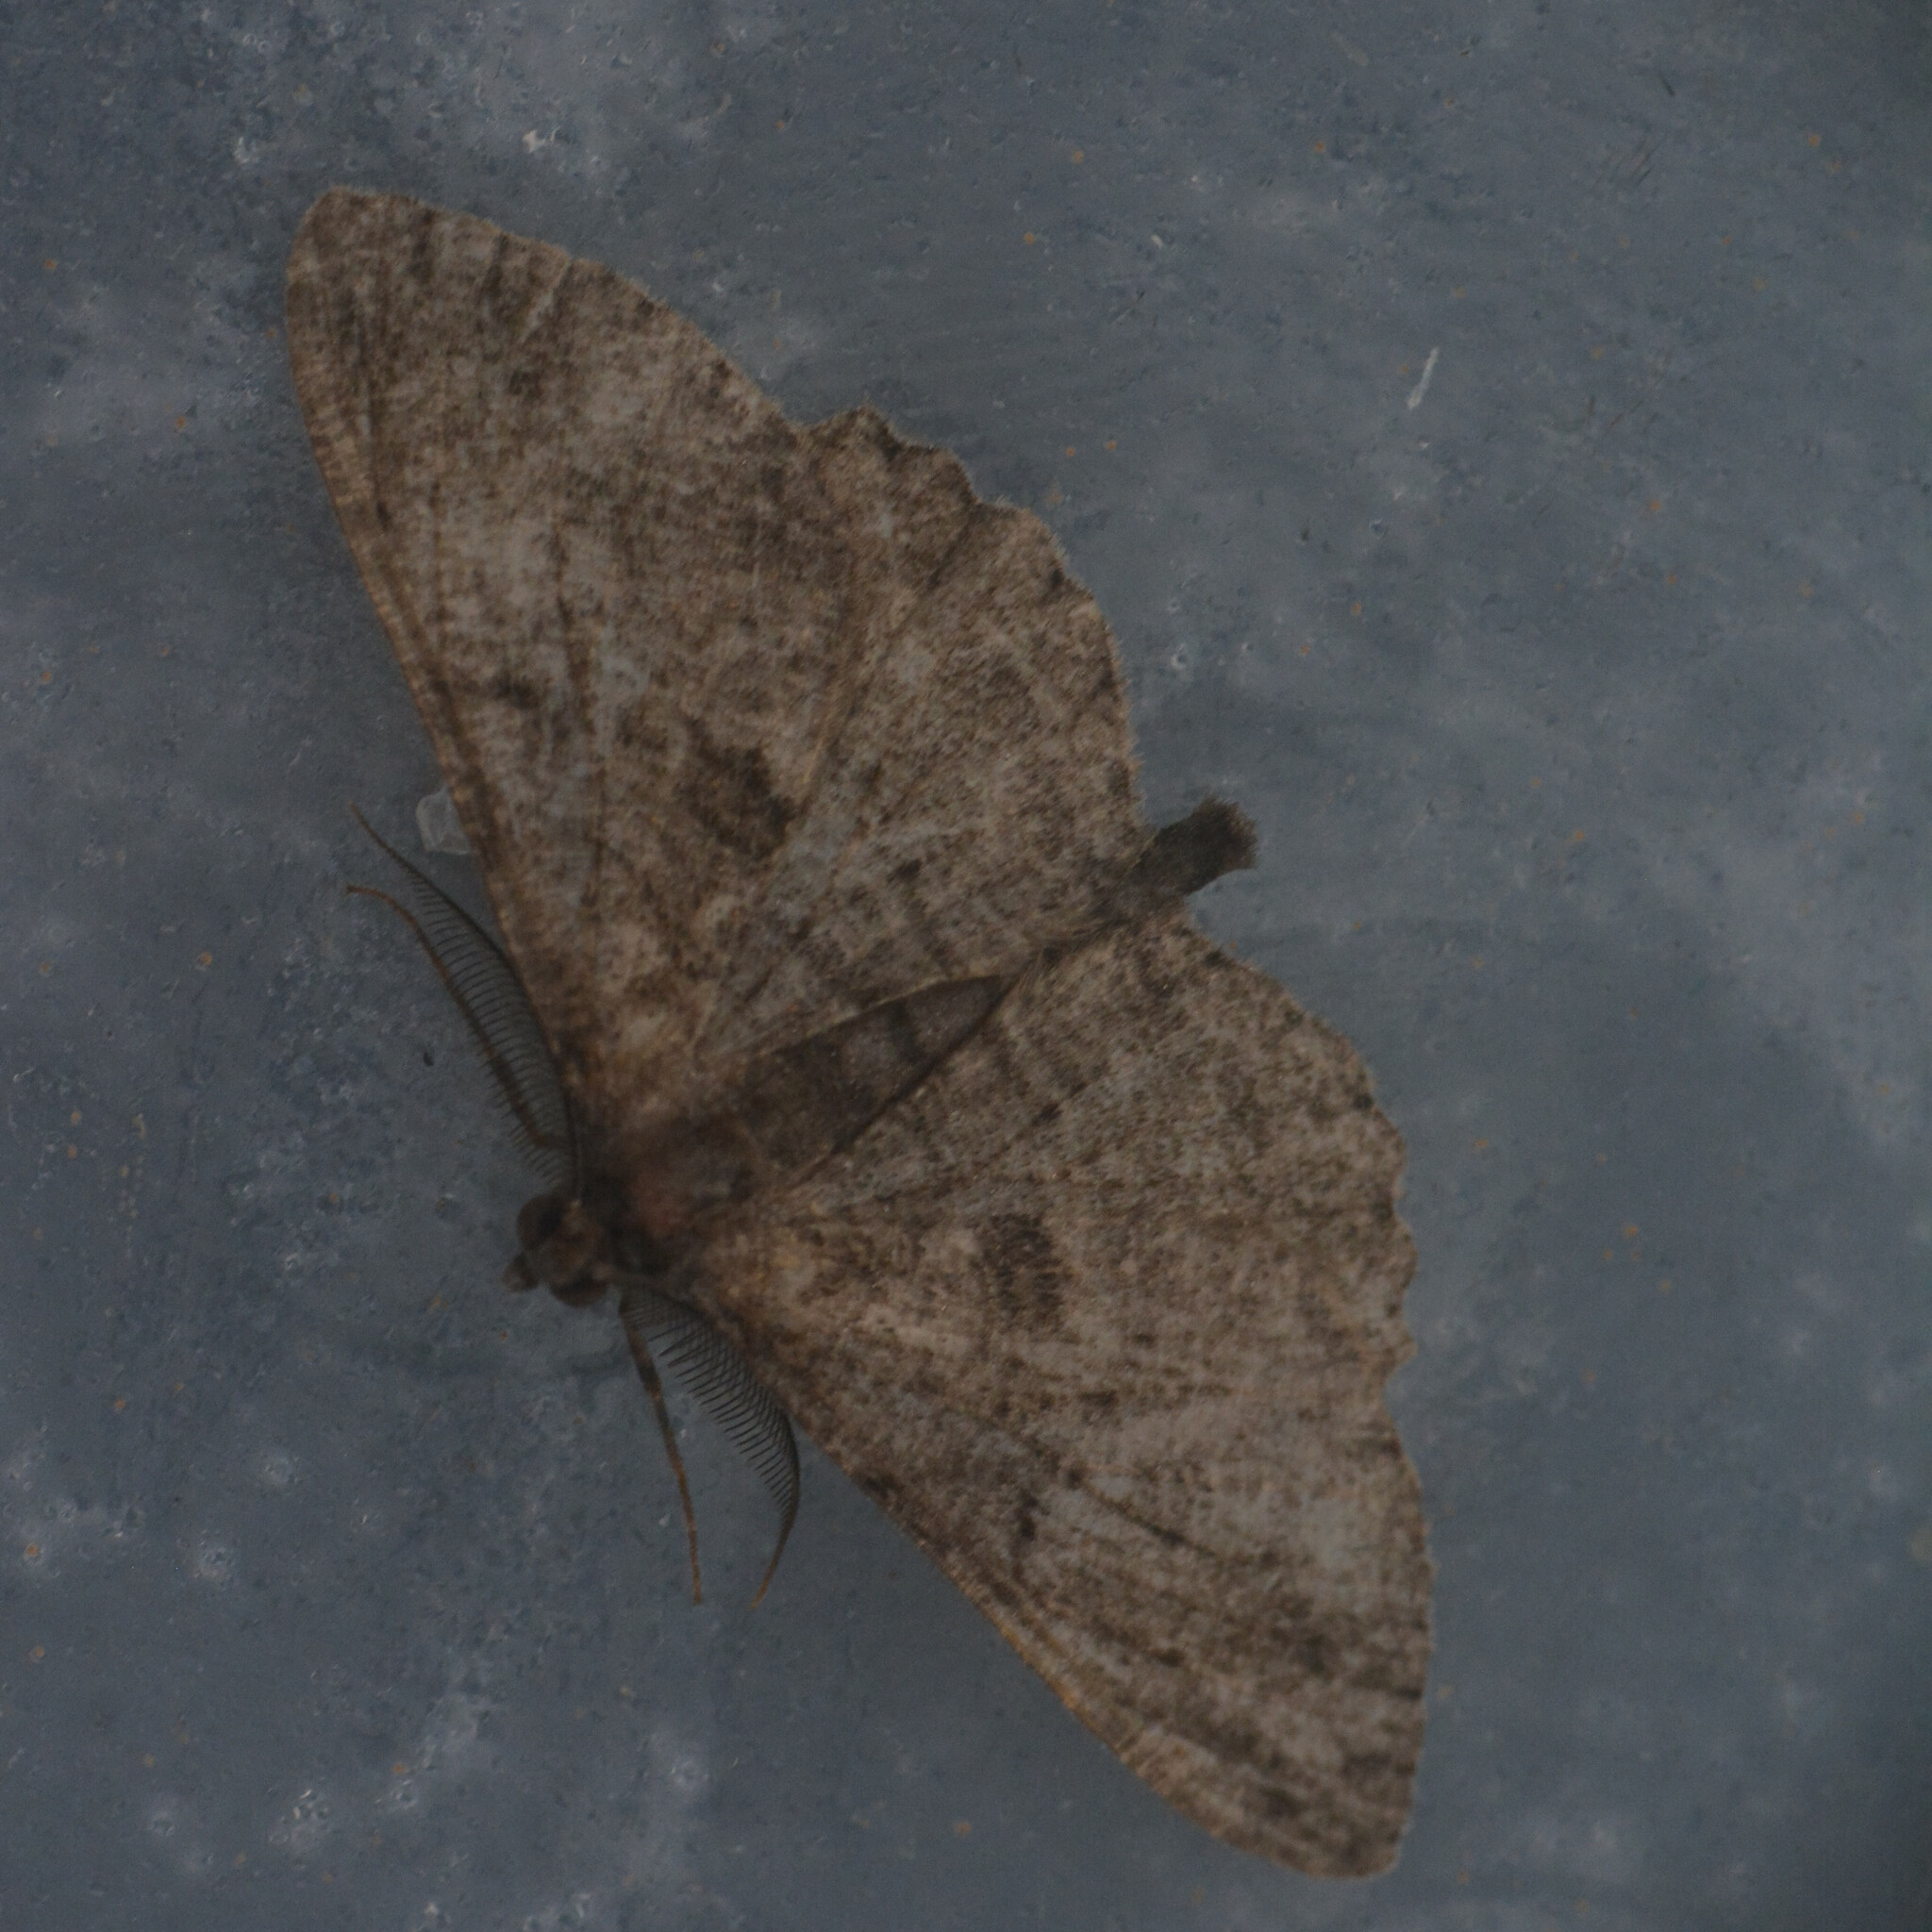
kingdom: Animalia
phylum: Arthropoda
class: Insecta
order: Lepidoptera
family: Geometridae
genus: Peribatodes
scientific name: Peribatodes rhomboidaria
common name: Willow beauty
